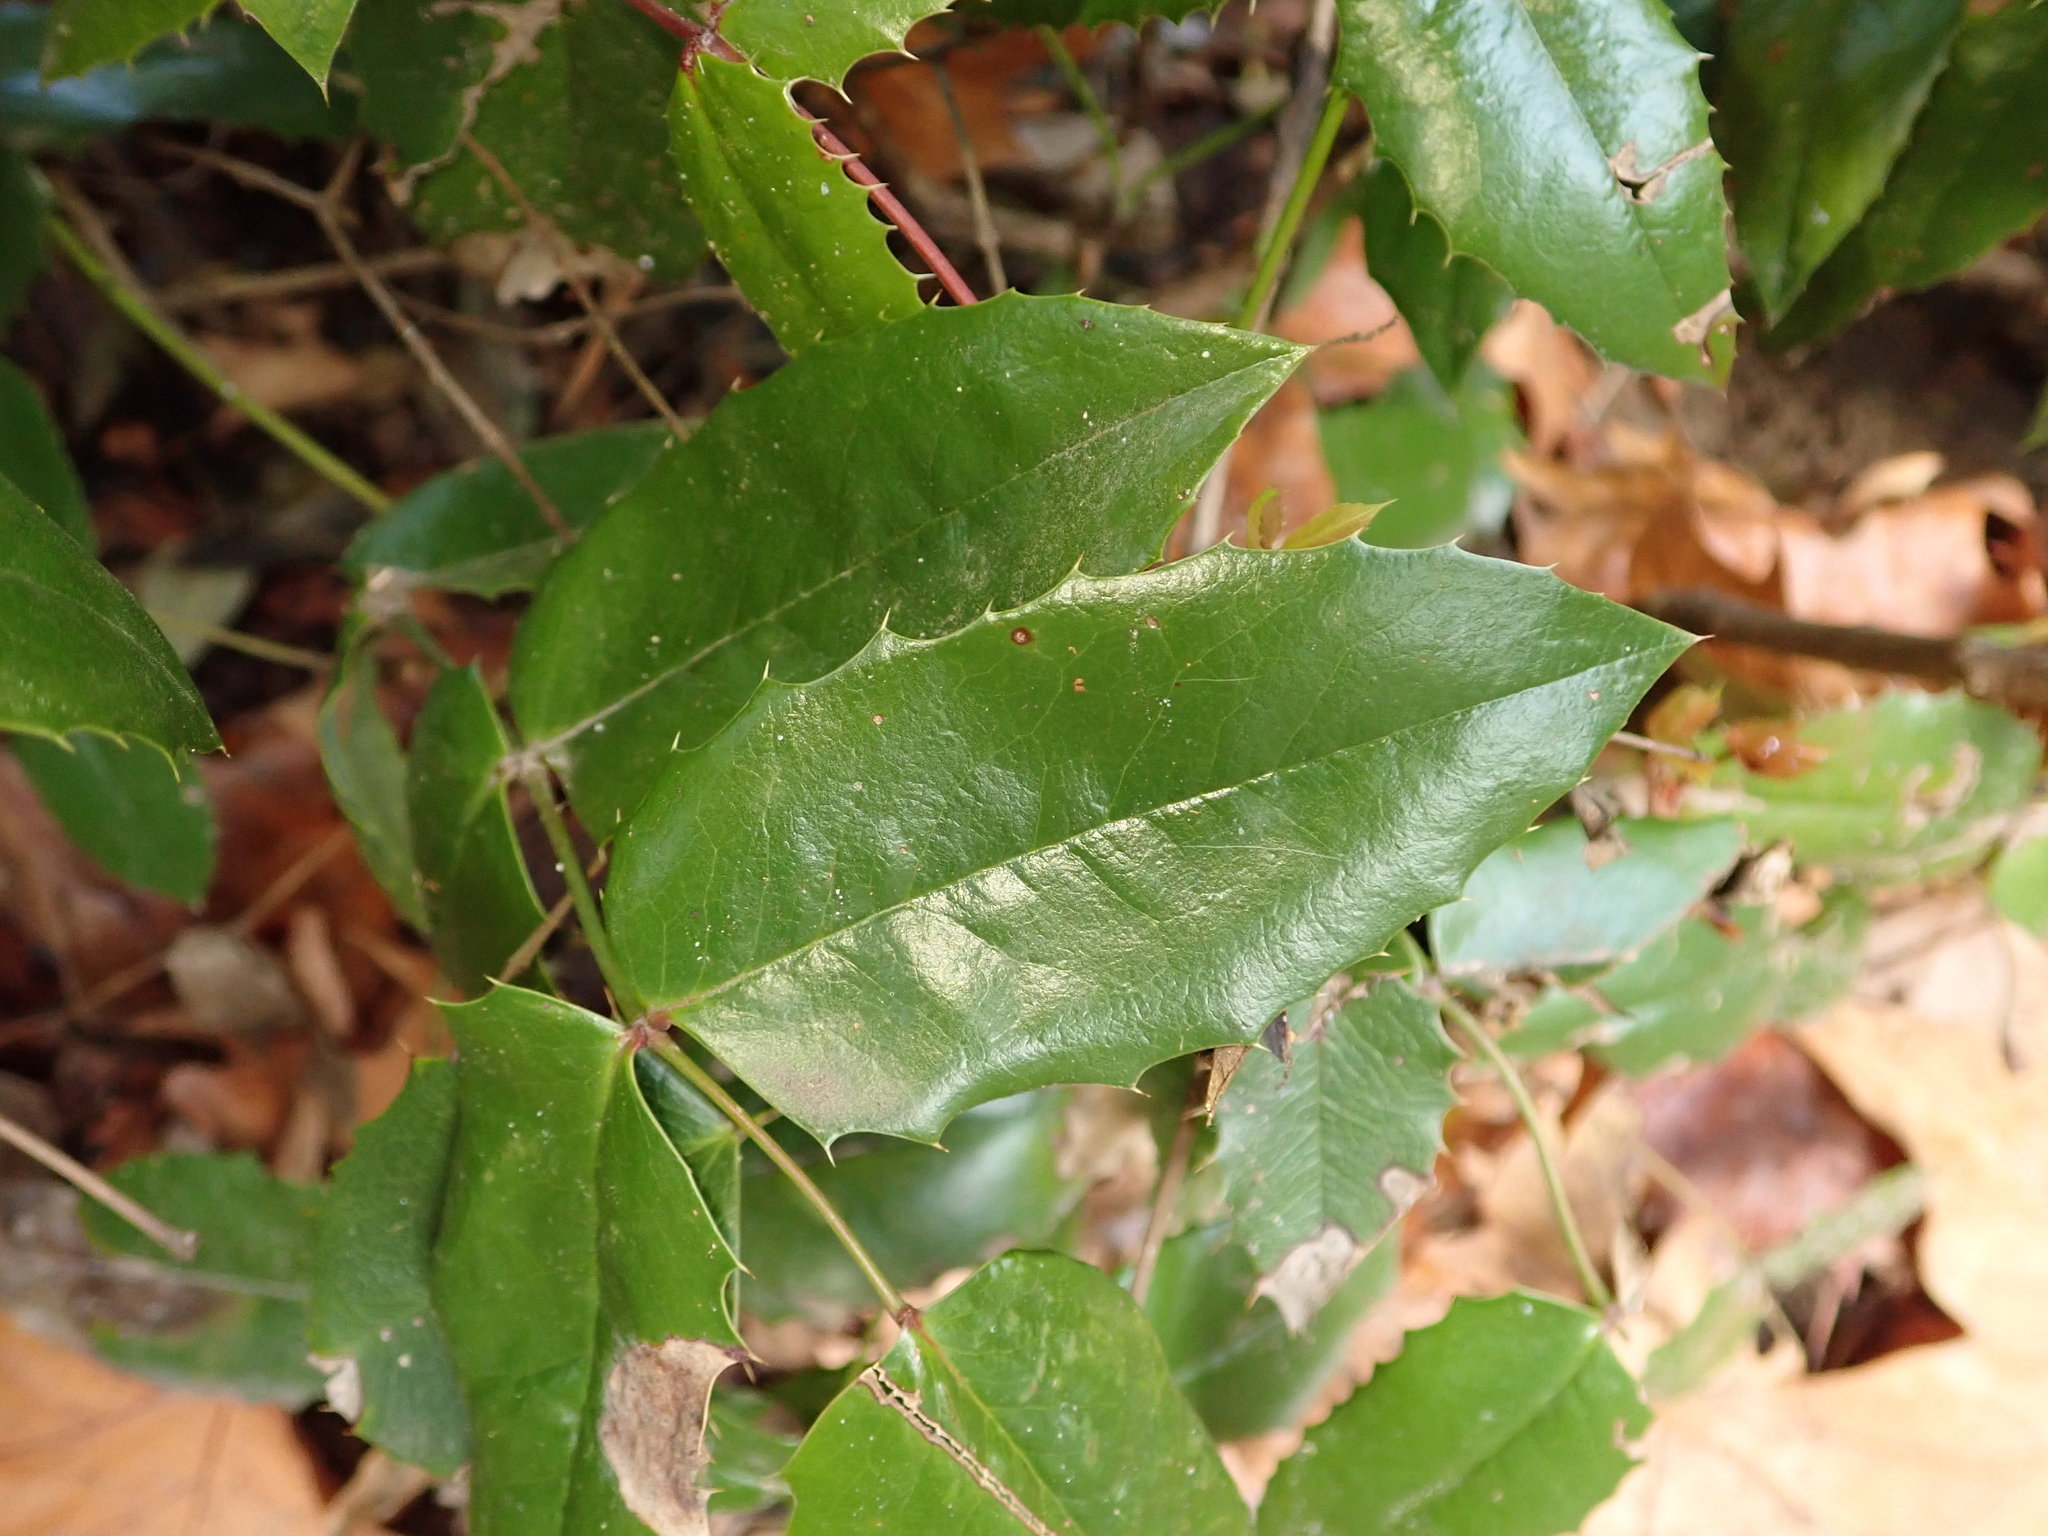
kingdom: Plantae
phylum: Tracheophyta
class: Magnoliopsida
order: Ranunculales
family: Berberidaceae
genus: Mahonia
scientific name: Mahonia aquifolium
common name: Oregon-grape
